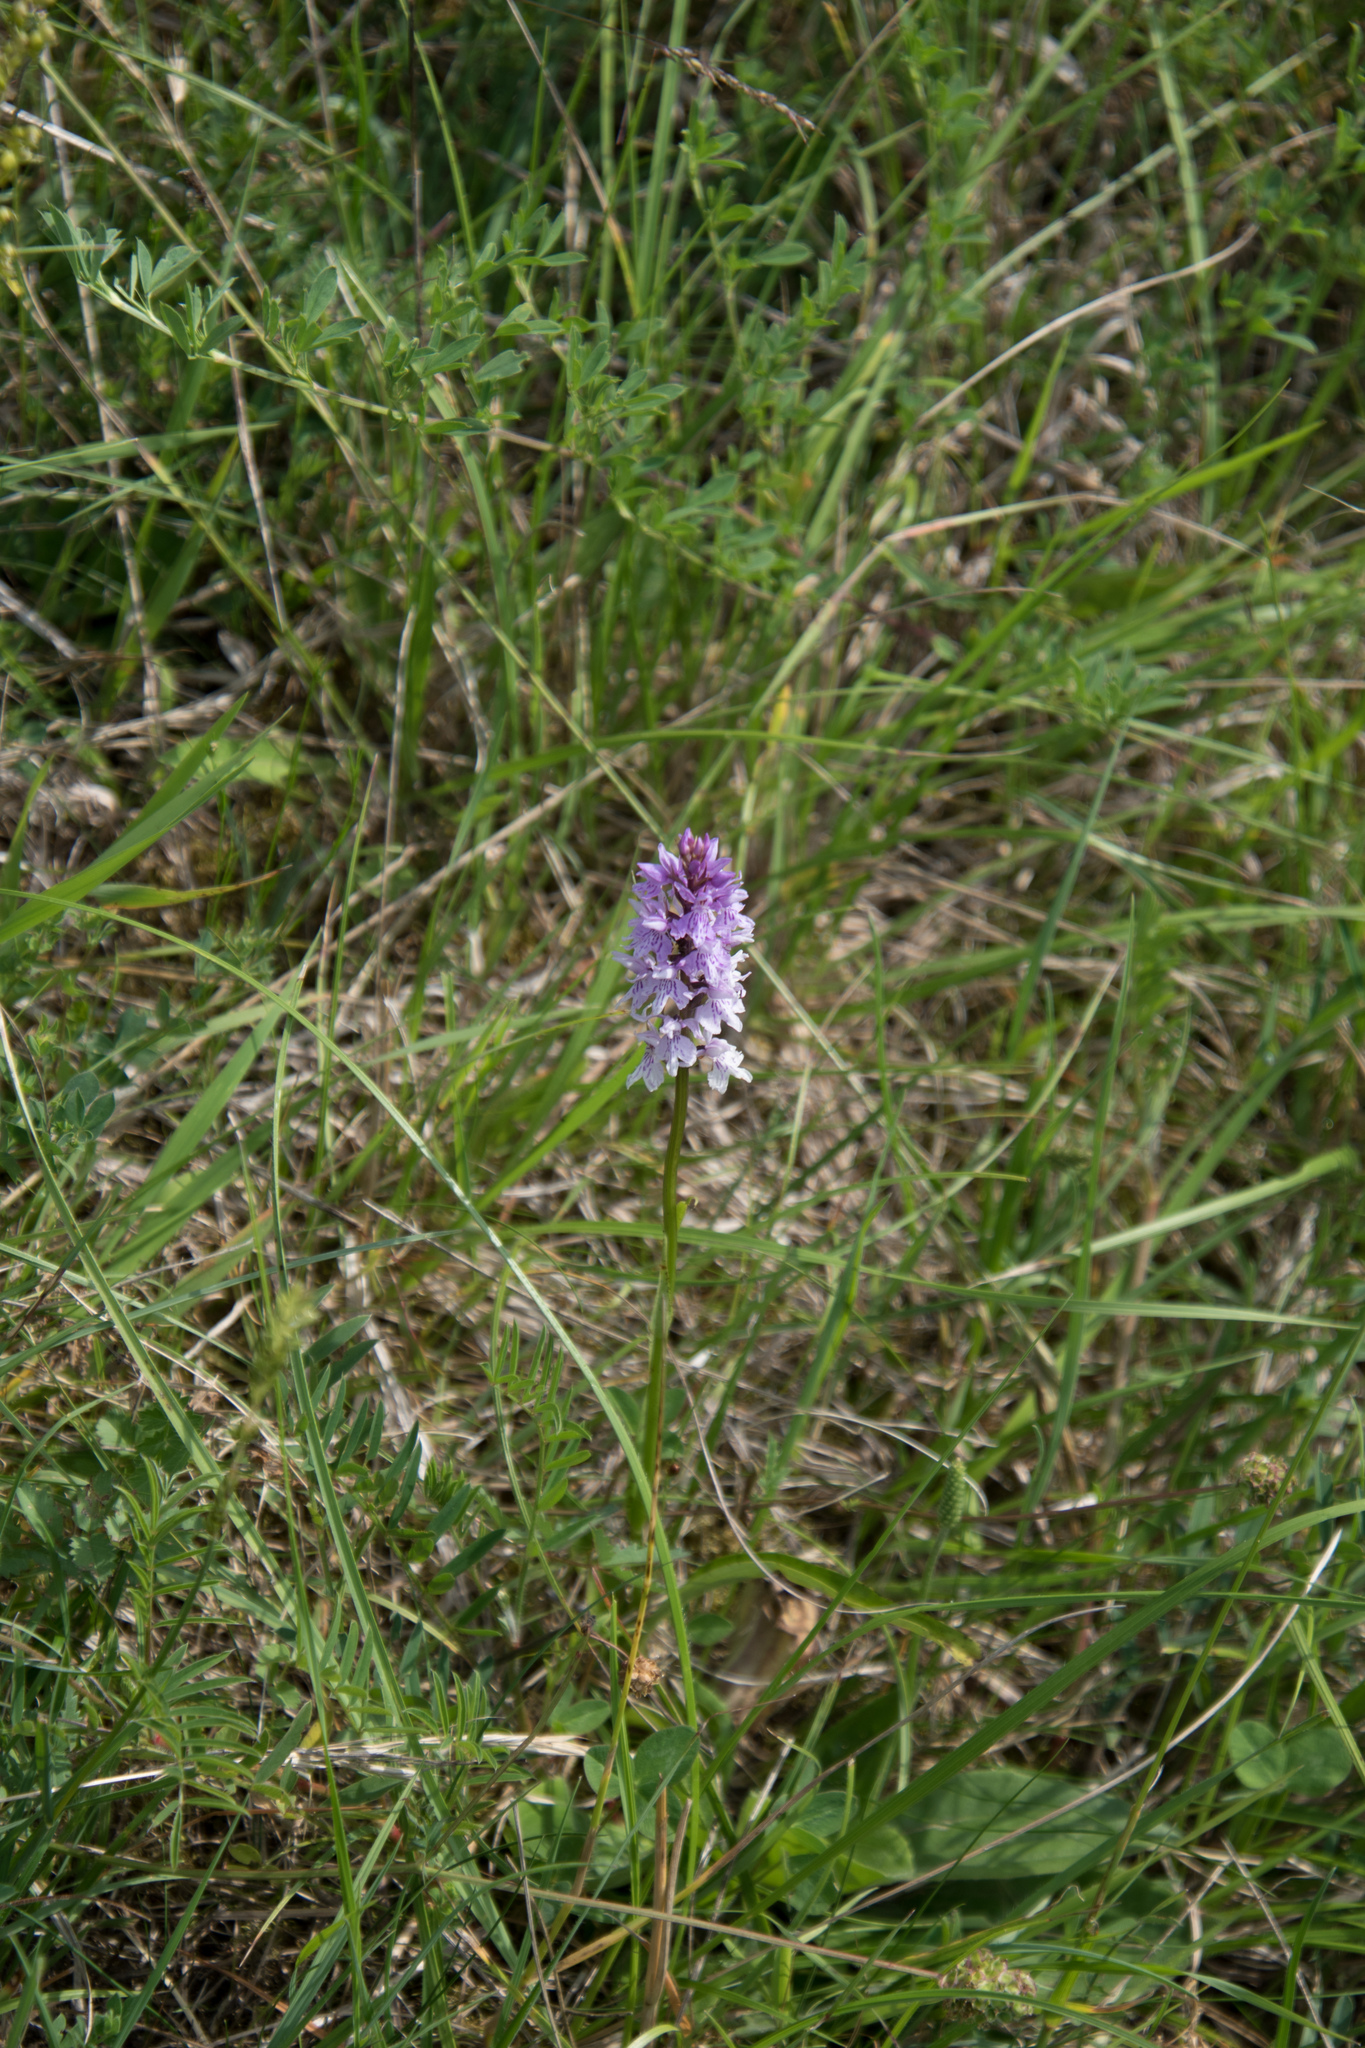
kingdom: Plantae
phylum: Tracheophyta
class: Liliopsida
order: Asparagales
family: Orchidaceae
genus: Dactylorhiza
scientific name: Dactylorhiza maculata
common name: Heath spotted-orchid
